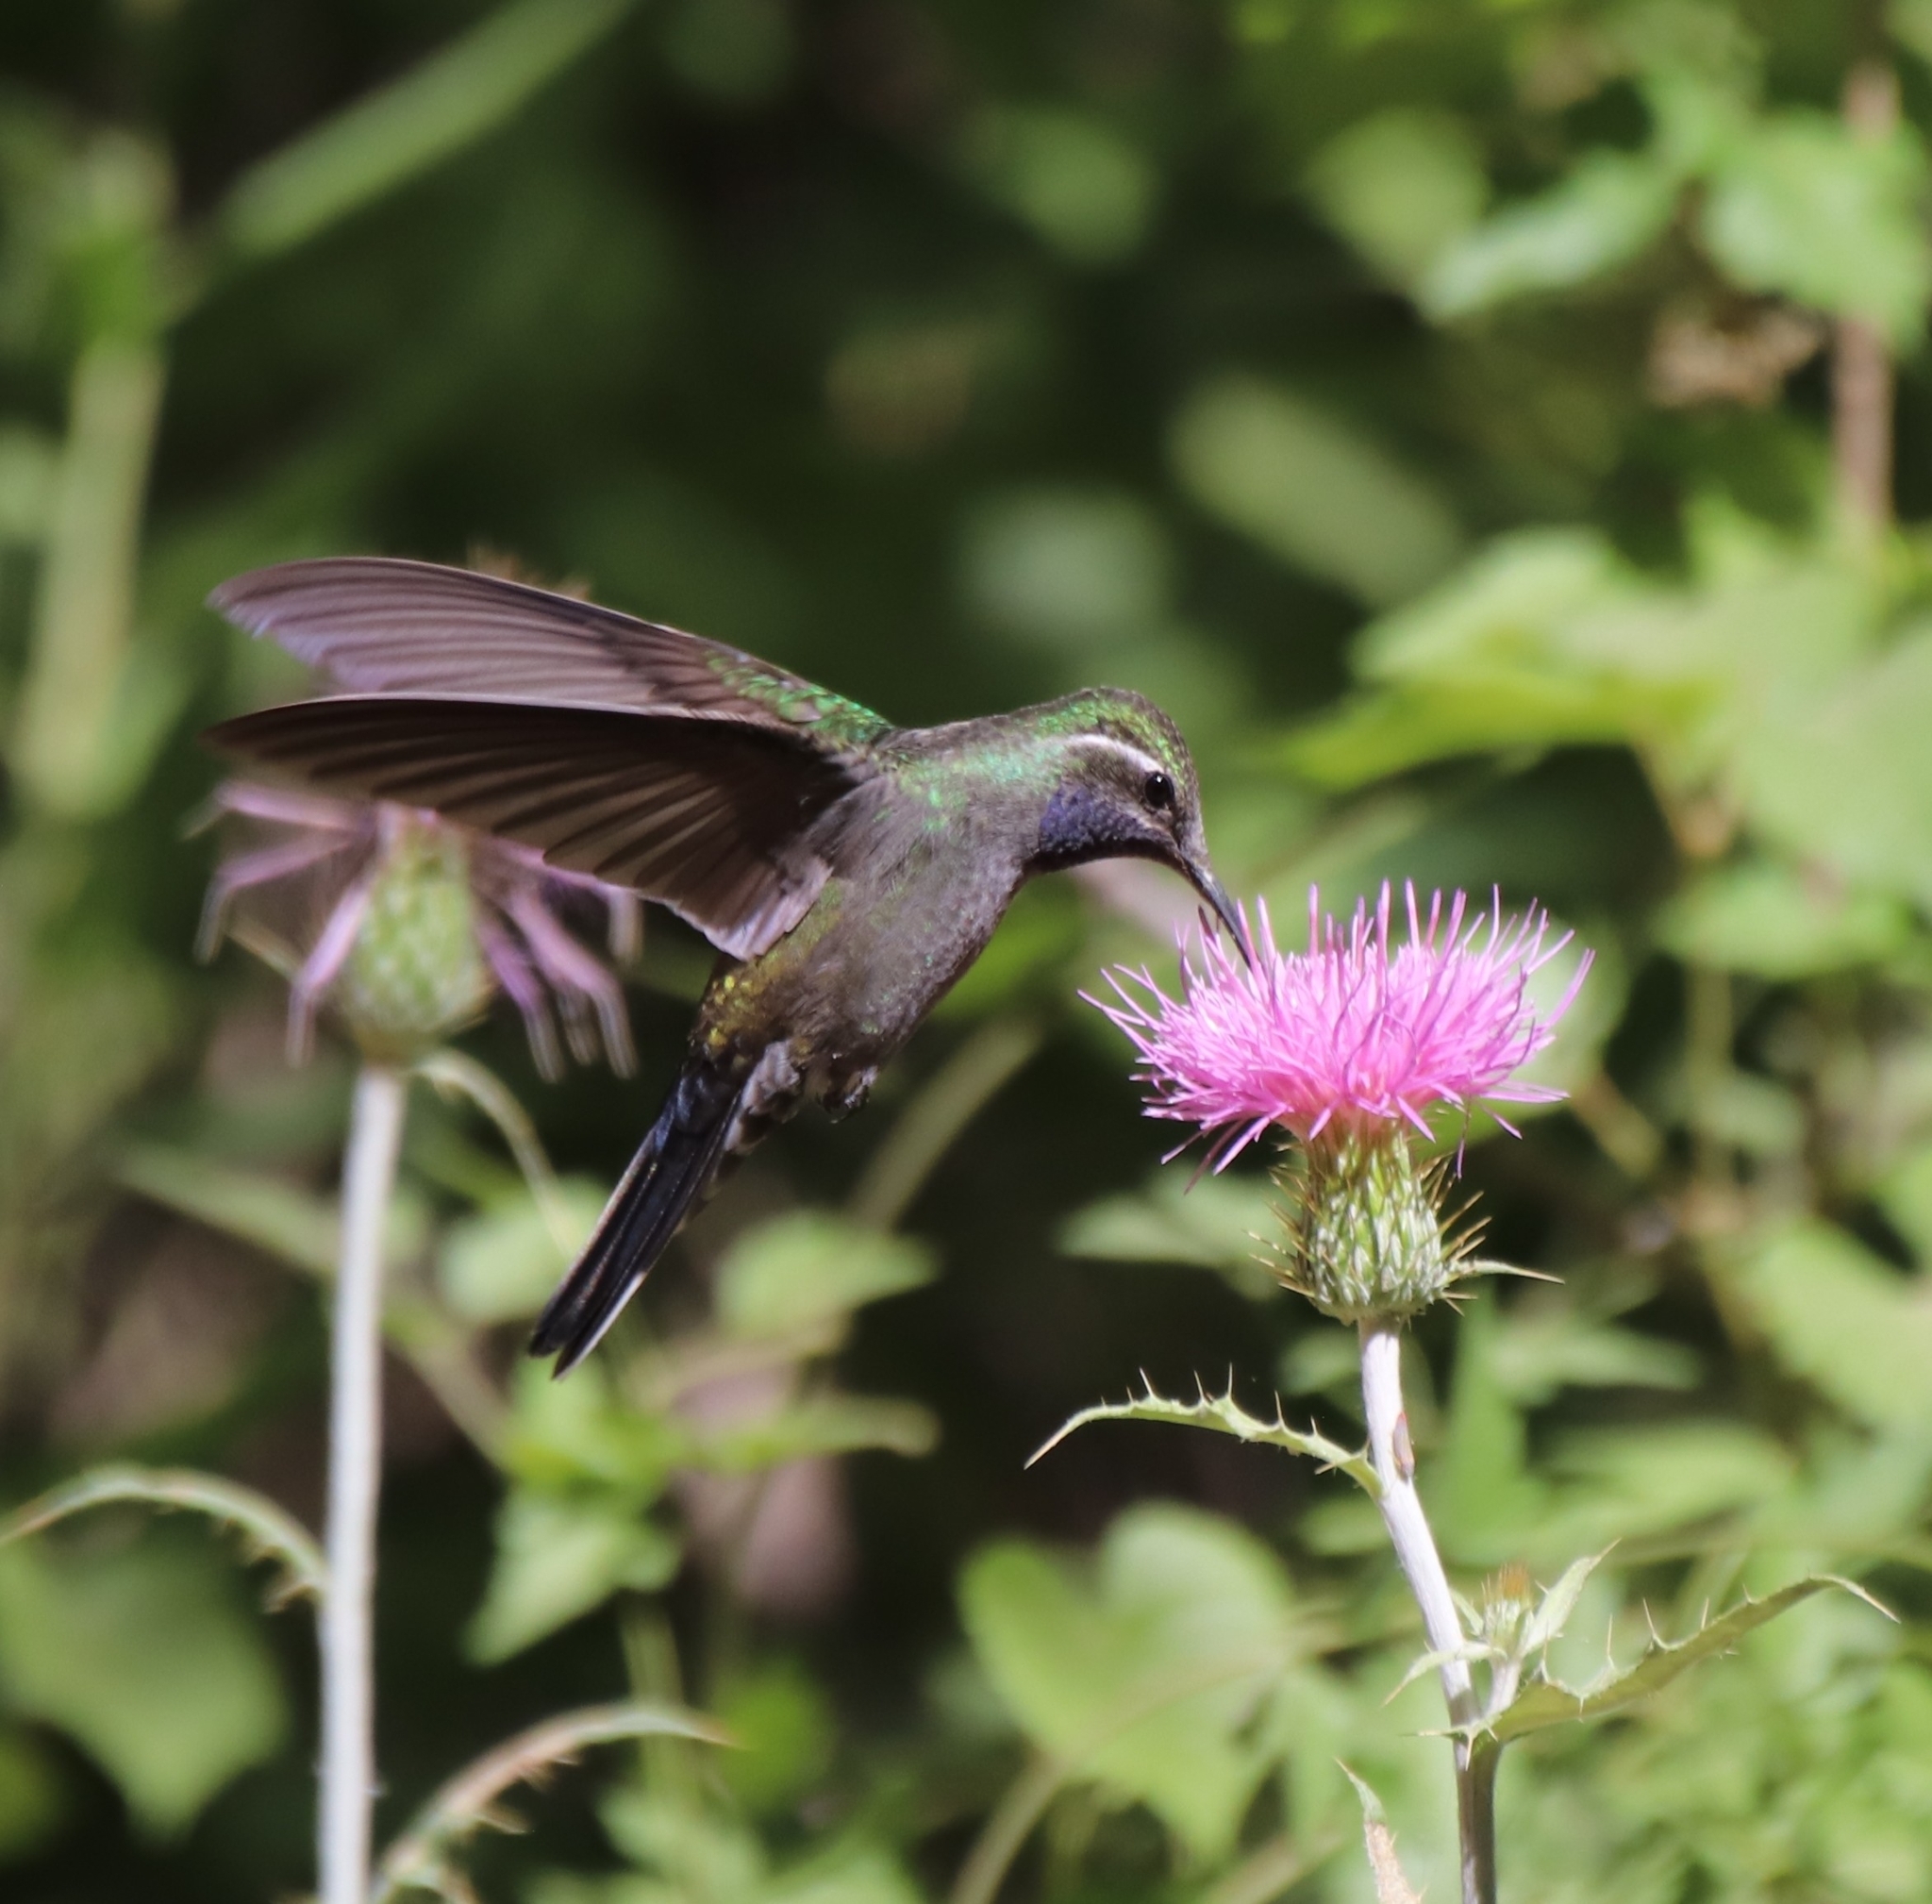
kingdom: Animalia
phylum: Chordata
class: Aves
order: Apodiformes
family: Trochilidae
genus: Lampornis
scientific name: Lampornis clemenciae
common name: Blue-throated mountaingem
